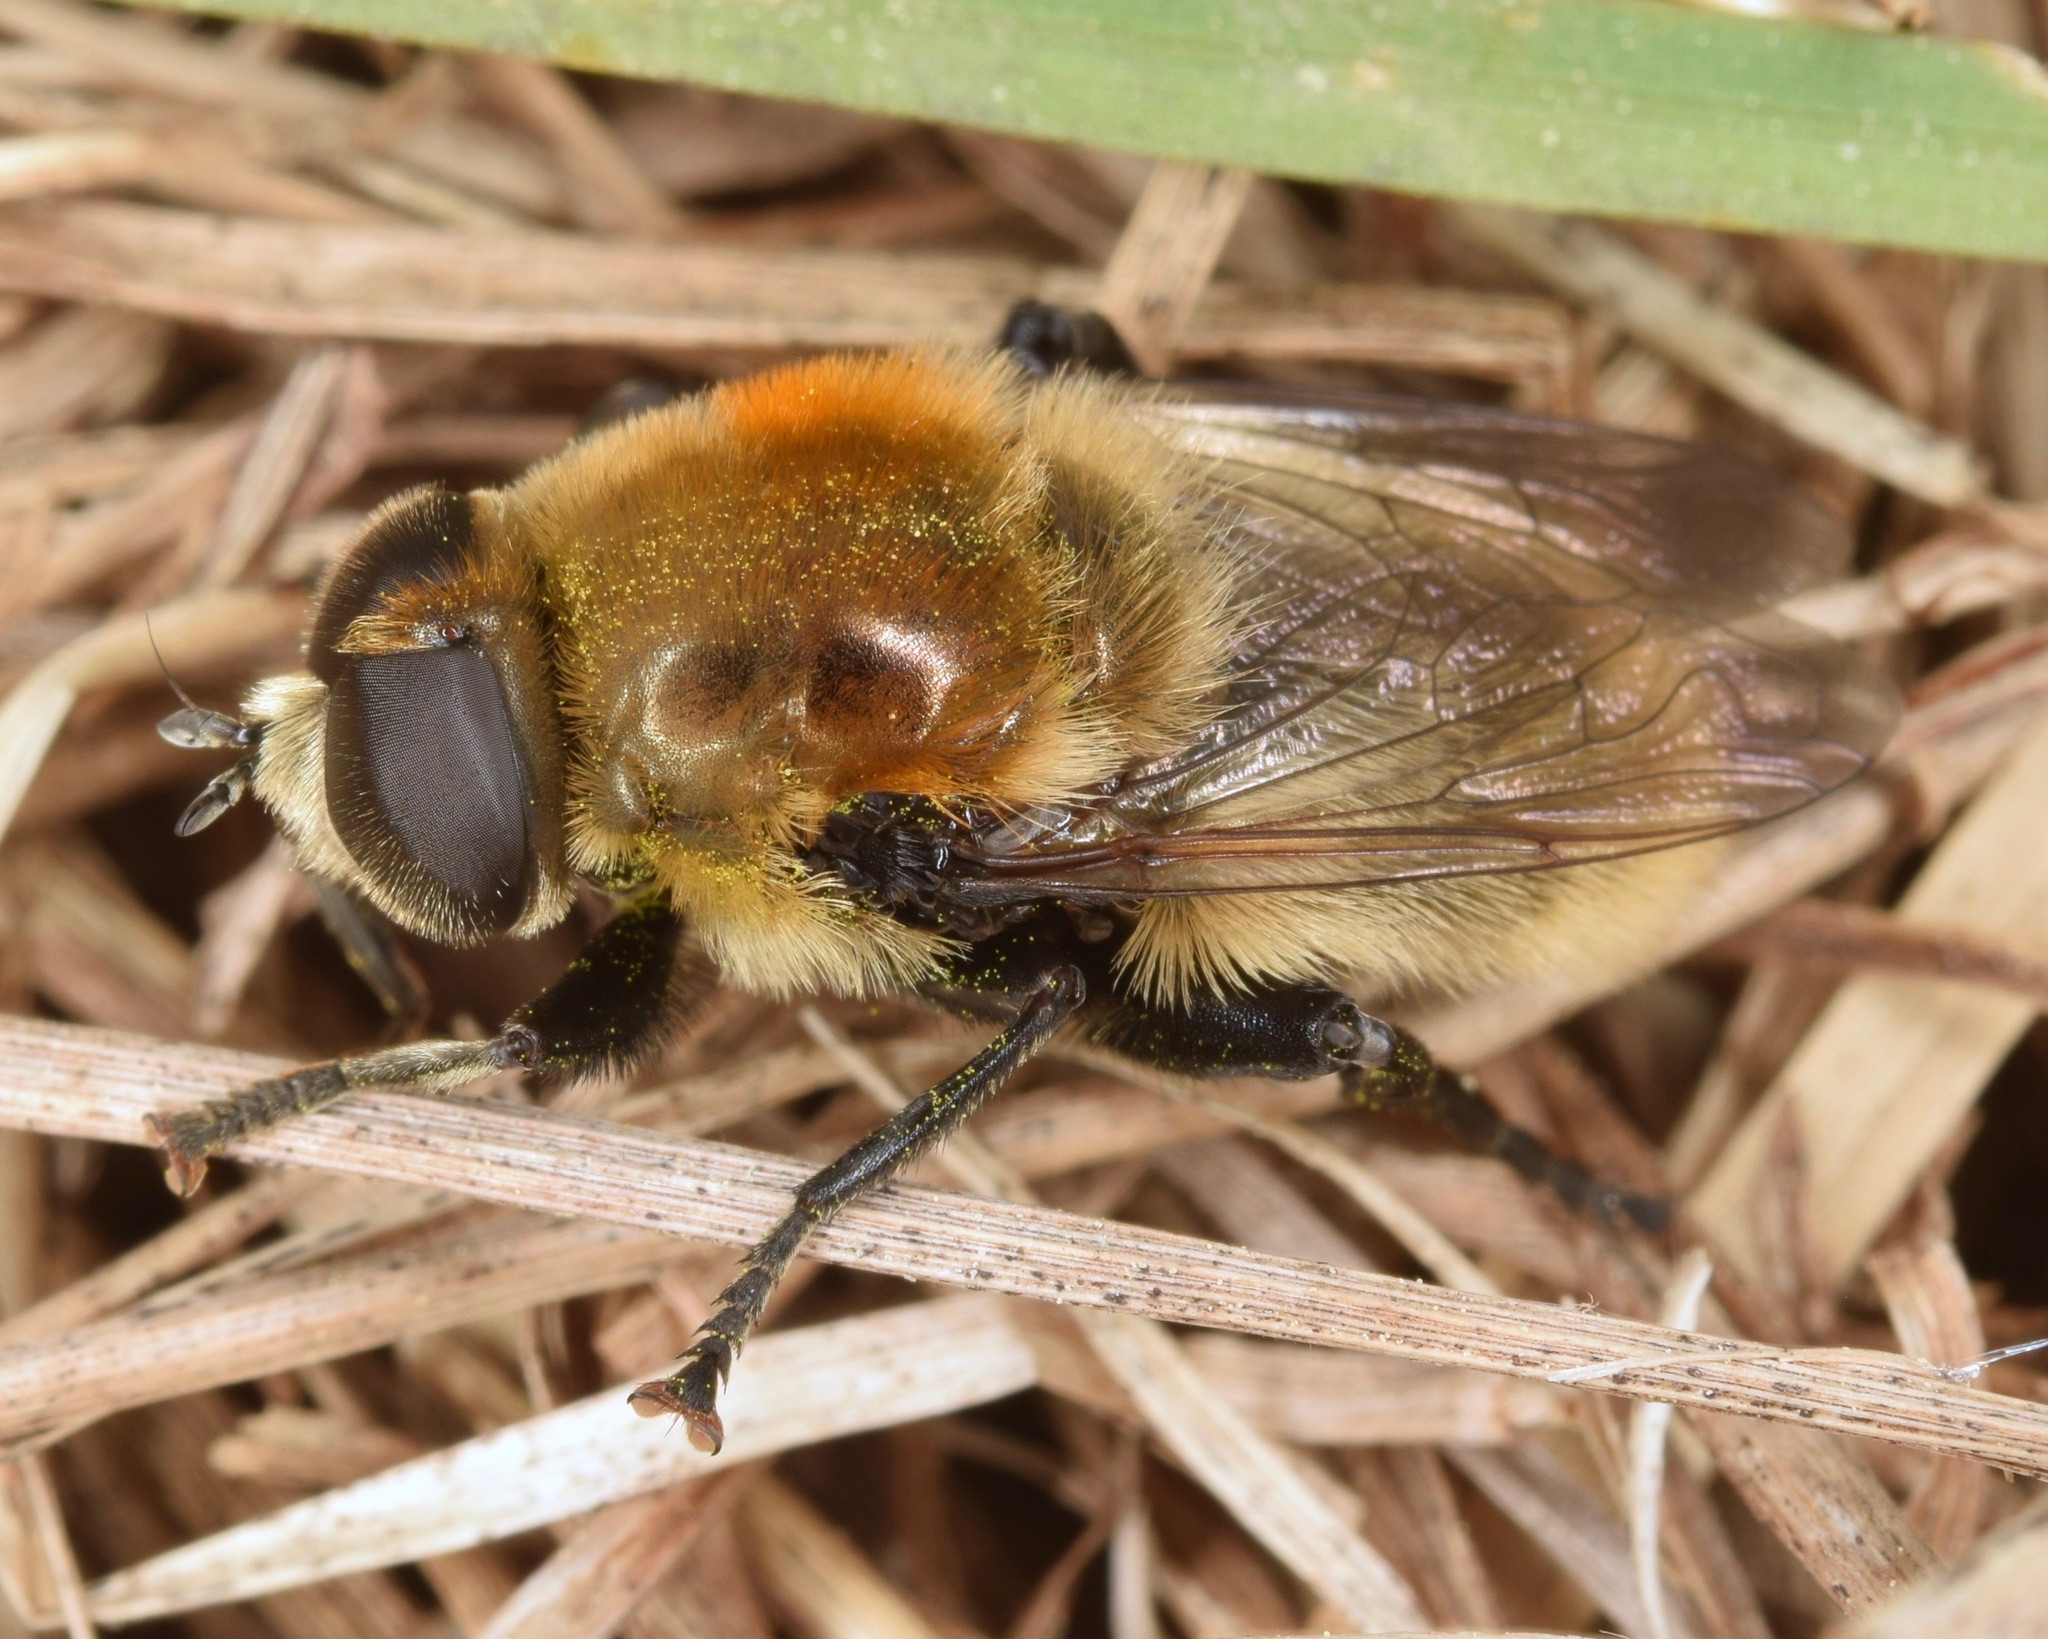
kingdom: Animalia
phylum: Arthropoda
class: Insecta
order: Diptera
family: Syrphidae
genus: Merodon
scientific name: Merodon equestris
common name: Greater bulb-fly
